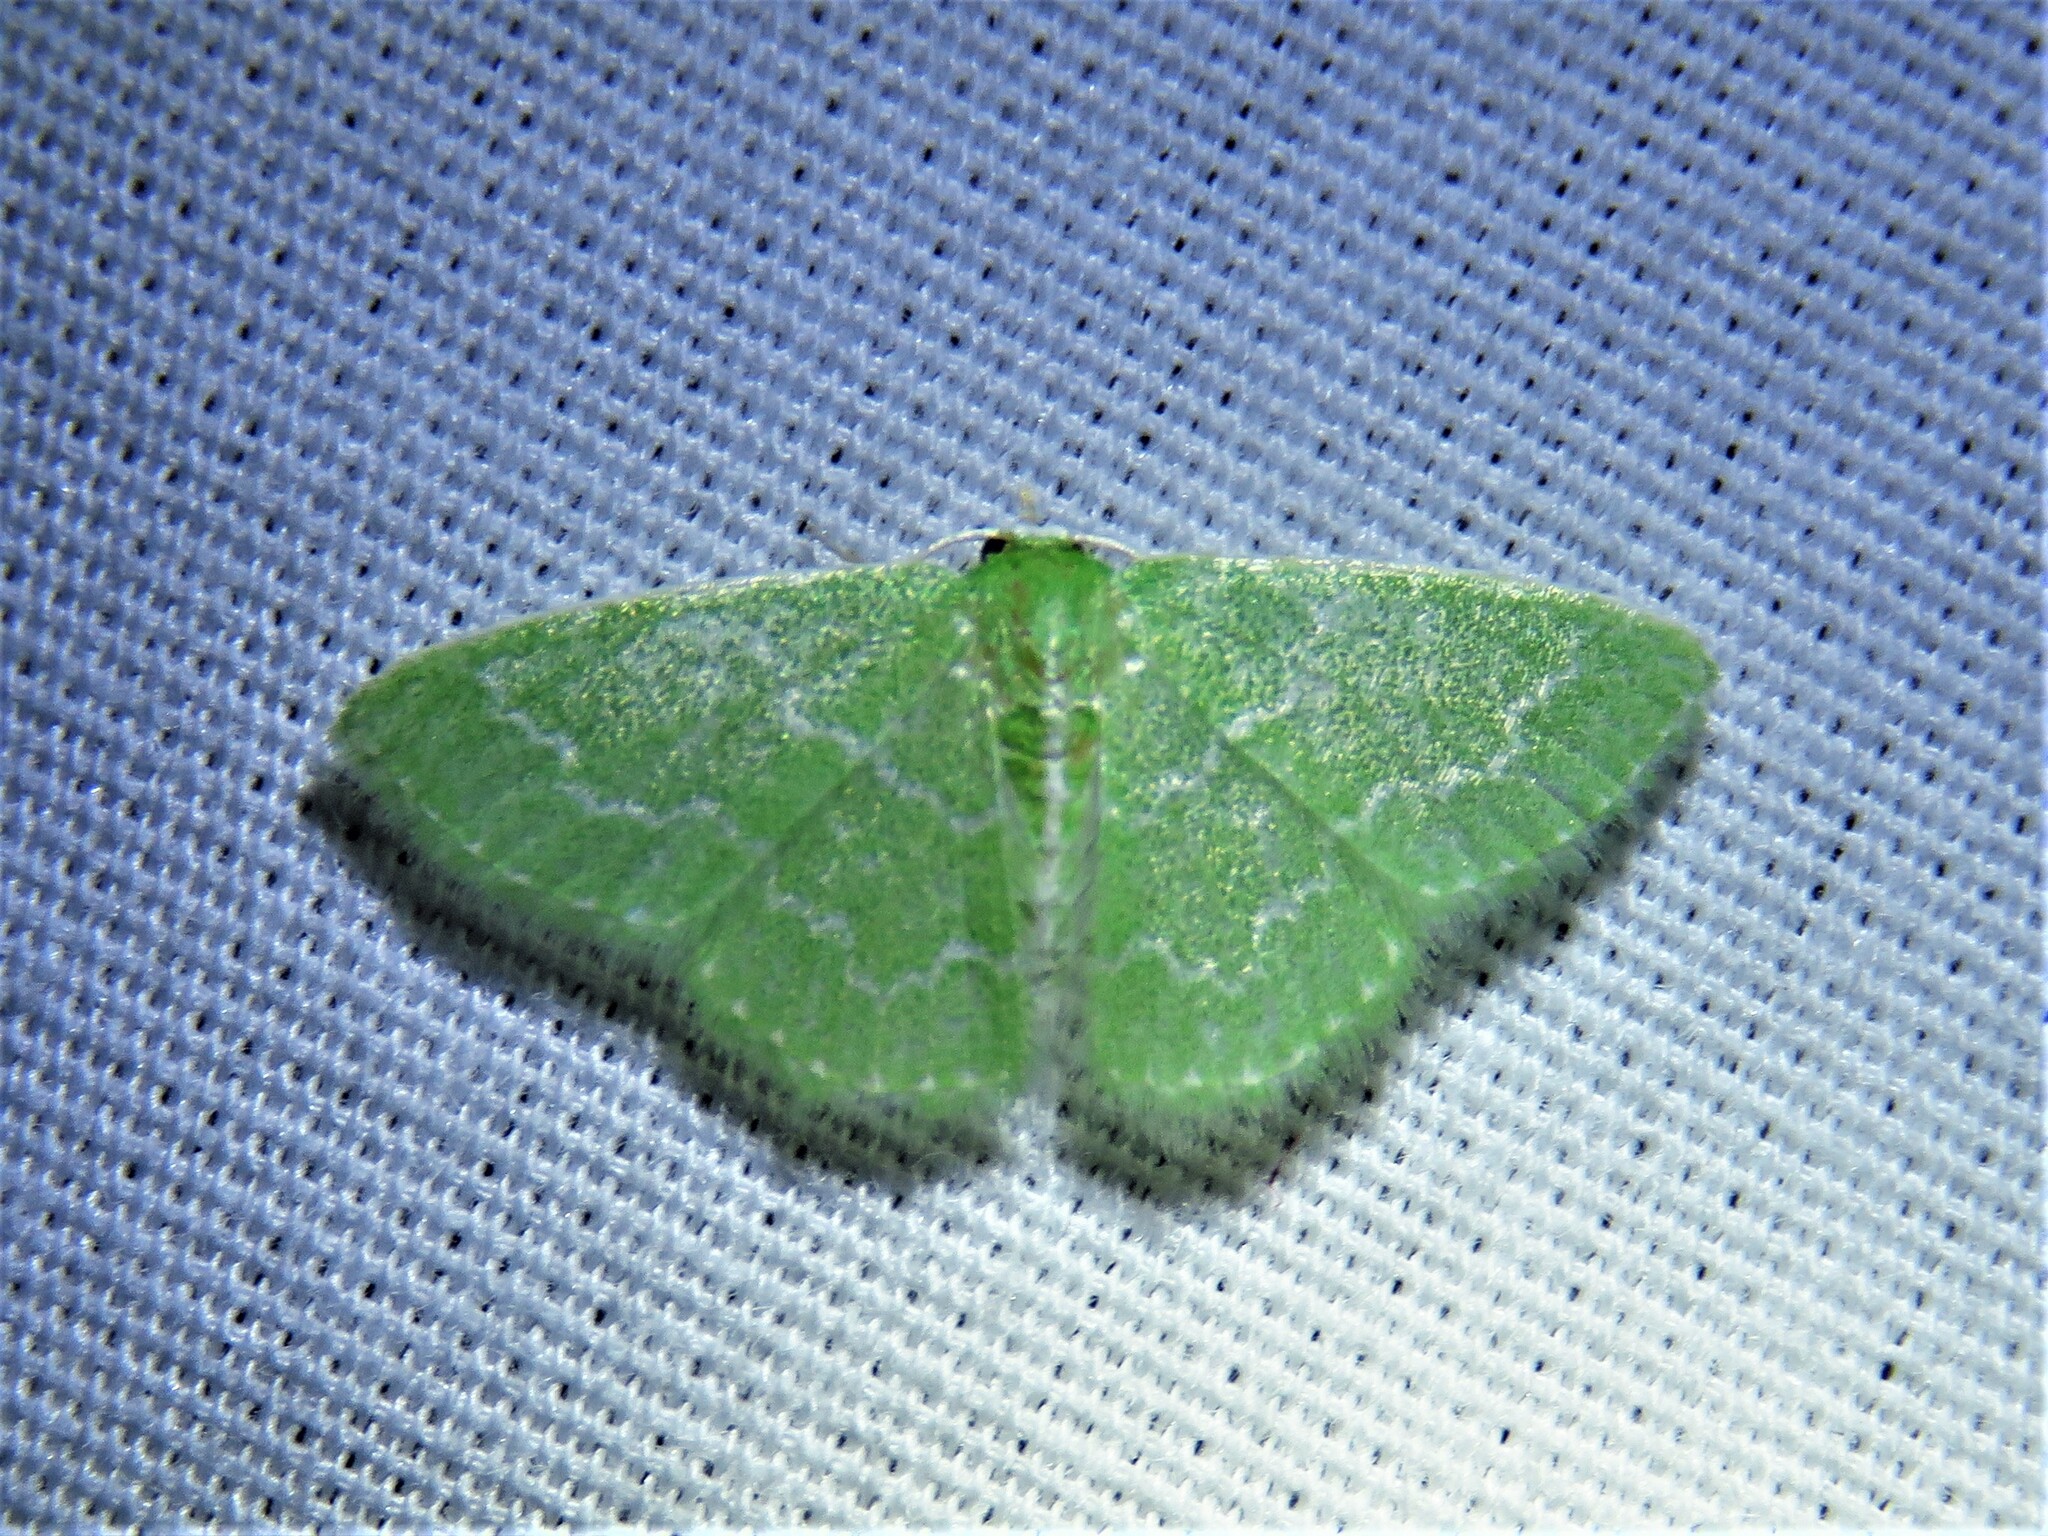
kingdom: Animalia
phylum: Arthropoda
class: Insecta
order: Lepidoptera
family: Geometridae
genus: Synchlora
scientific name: Synchlora frondaria
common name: Southern emerald
